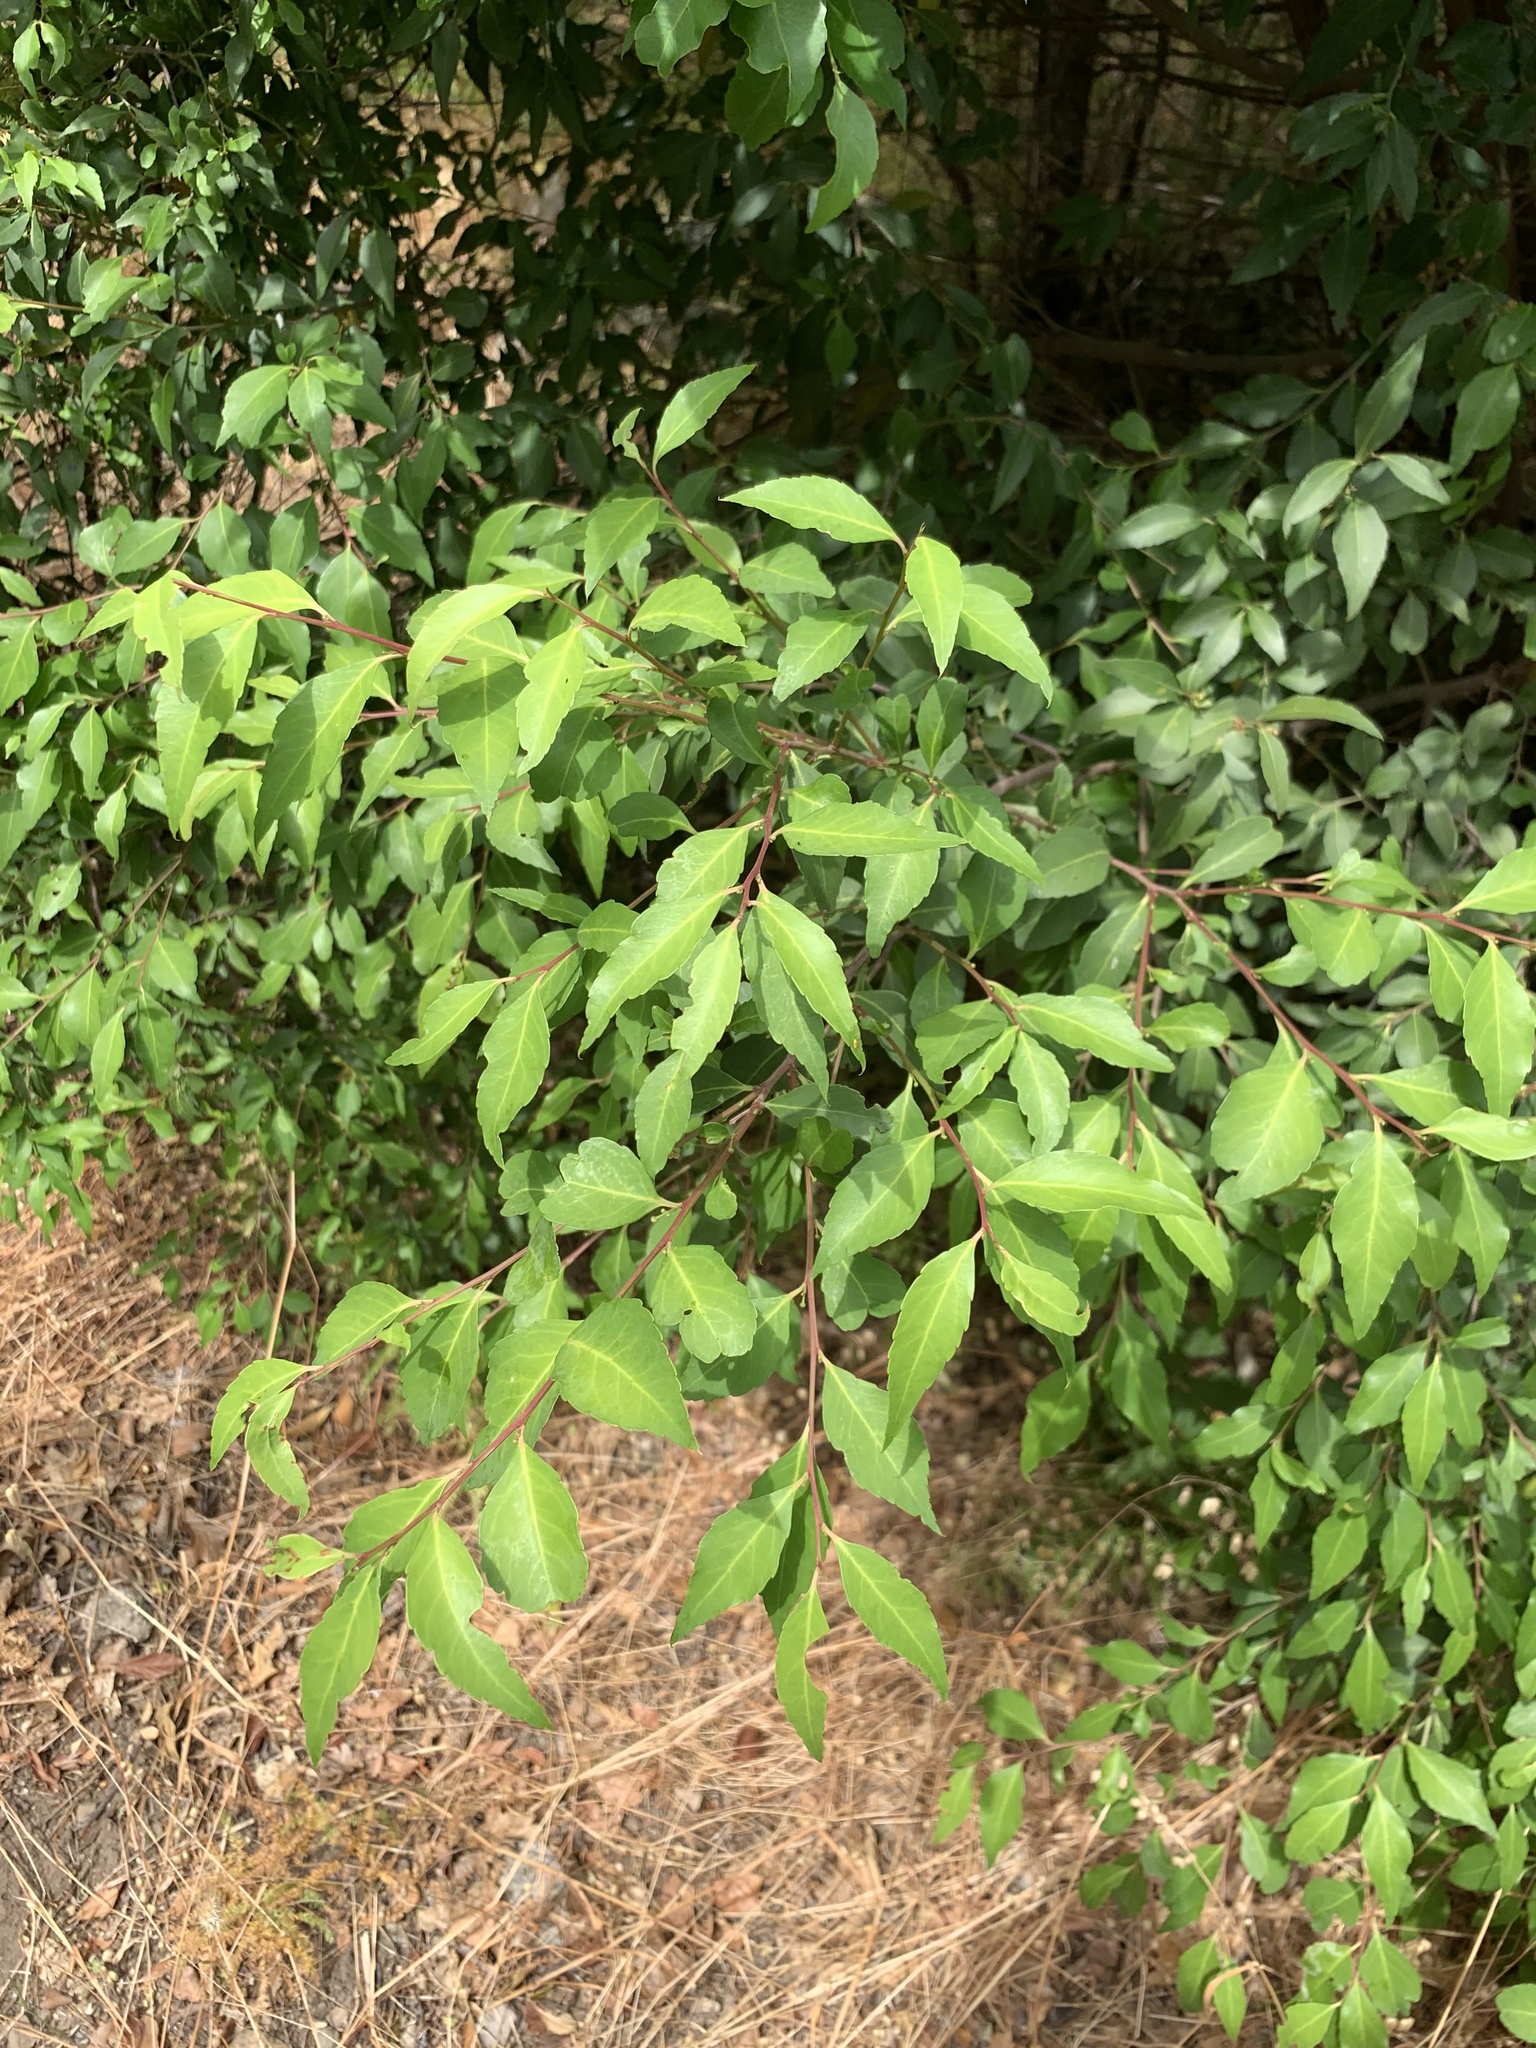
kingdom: Plantae
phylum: Tracheophyta
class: Magnoliopsida
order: Celastrales
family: Celastraceae
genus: Gymnosporia
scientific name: Gymnosporia acuminata
